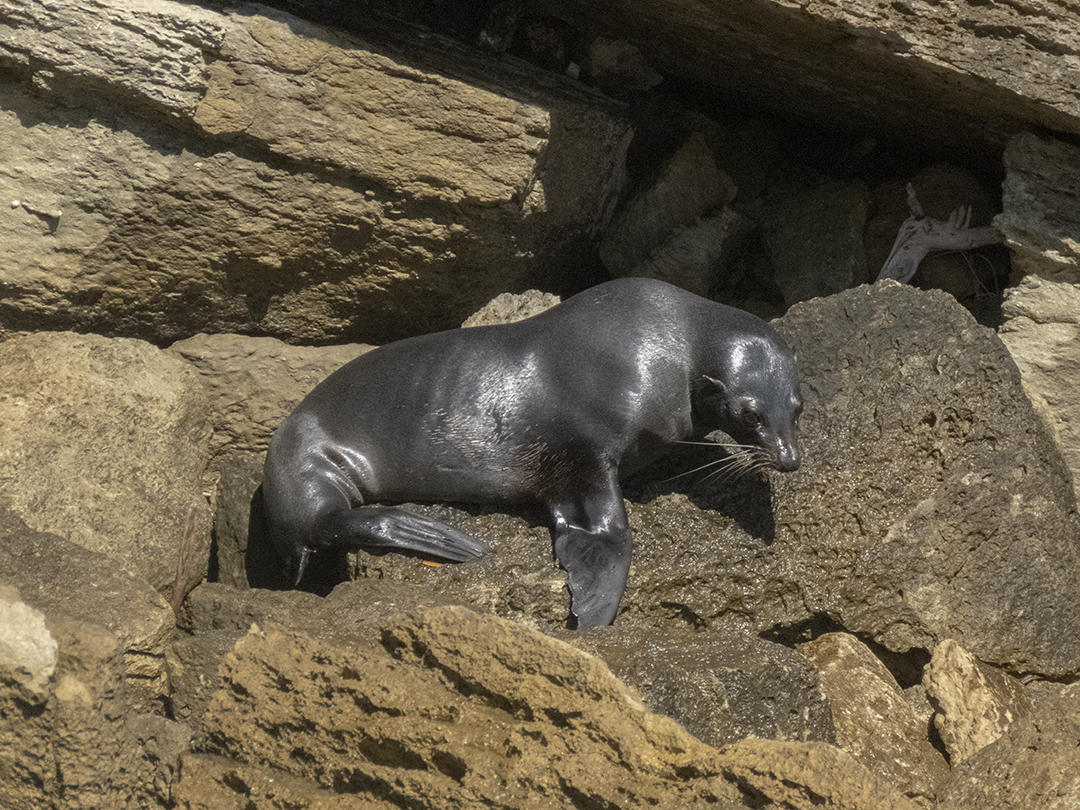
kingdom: Animalia
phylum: Chordata
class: Mammalia
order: Carnivora
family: Otariidae
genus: Arctocephalus
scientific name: Arctocephalus forsteri
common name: New zealand fur seal
